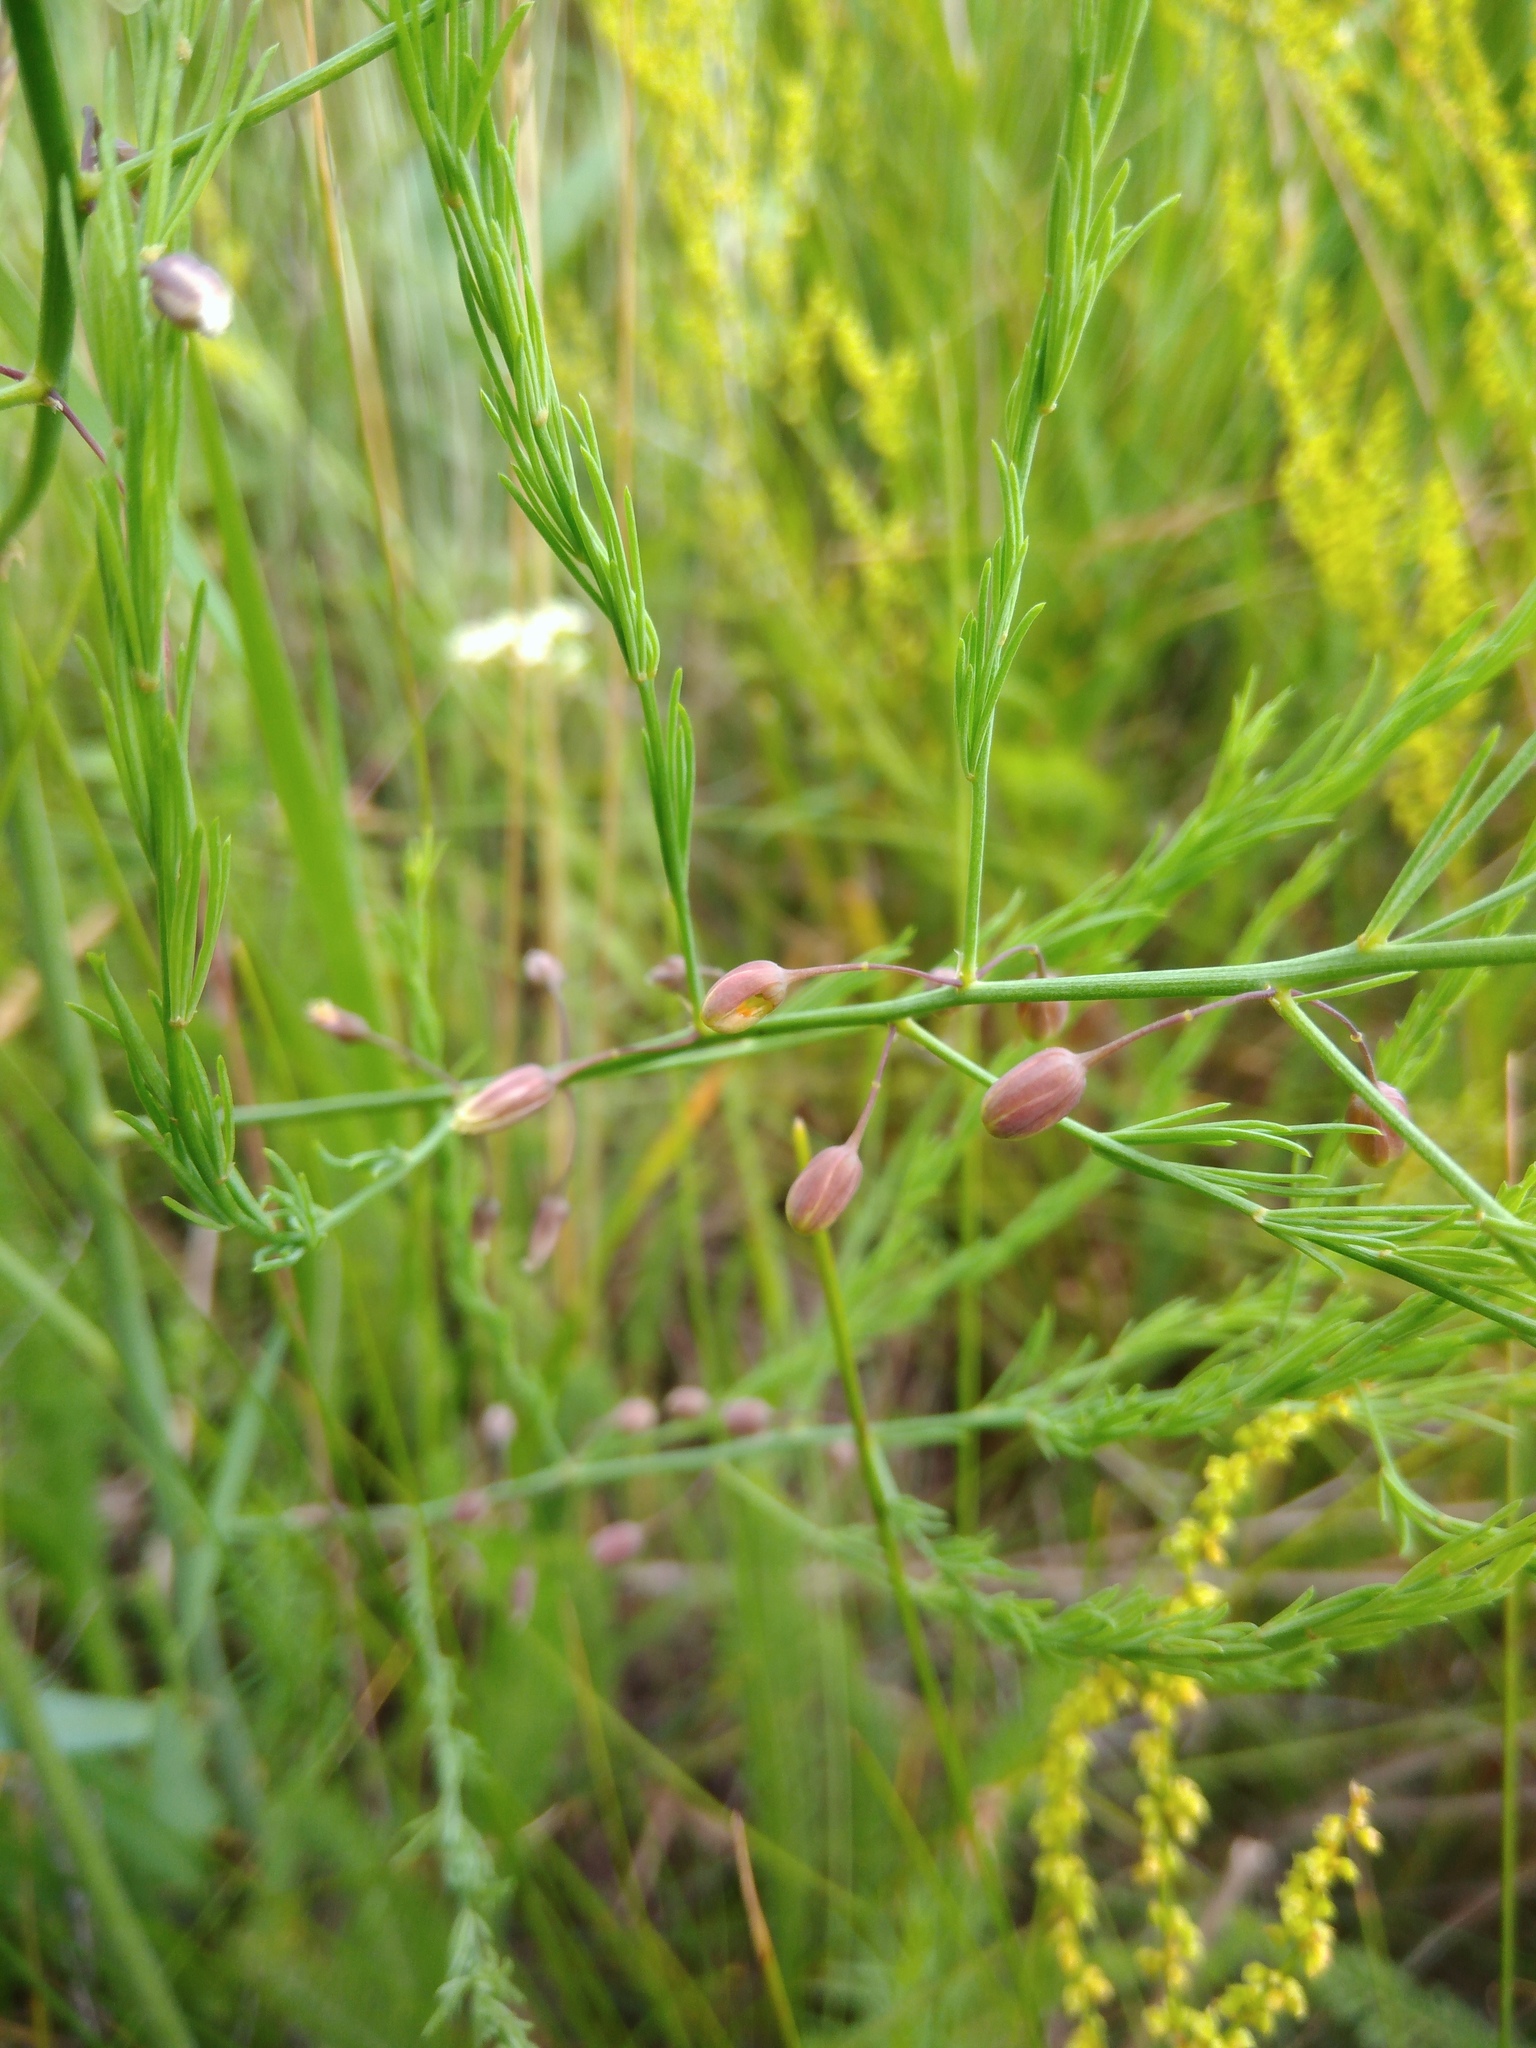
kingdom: Plantae
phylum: Tracheophyta
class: Liliopsida
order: Asparagales
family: Asparagaceae
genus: Asparagus
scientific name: Asparagus officinalis
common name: Garden asparagus
